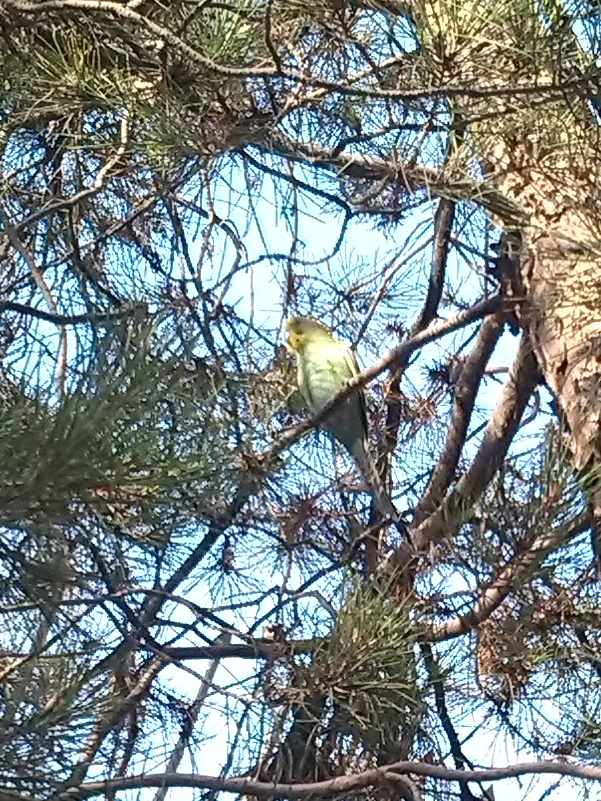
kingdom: Animalia
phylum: Chordata
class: Aves
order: Psittaciformes
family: Psittacidae
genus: Melopsittacus
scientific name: Melopsittacus undulatus
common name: Budgerigar
